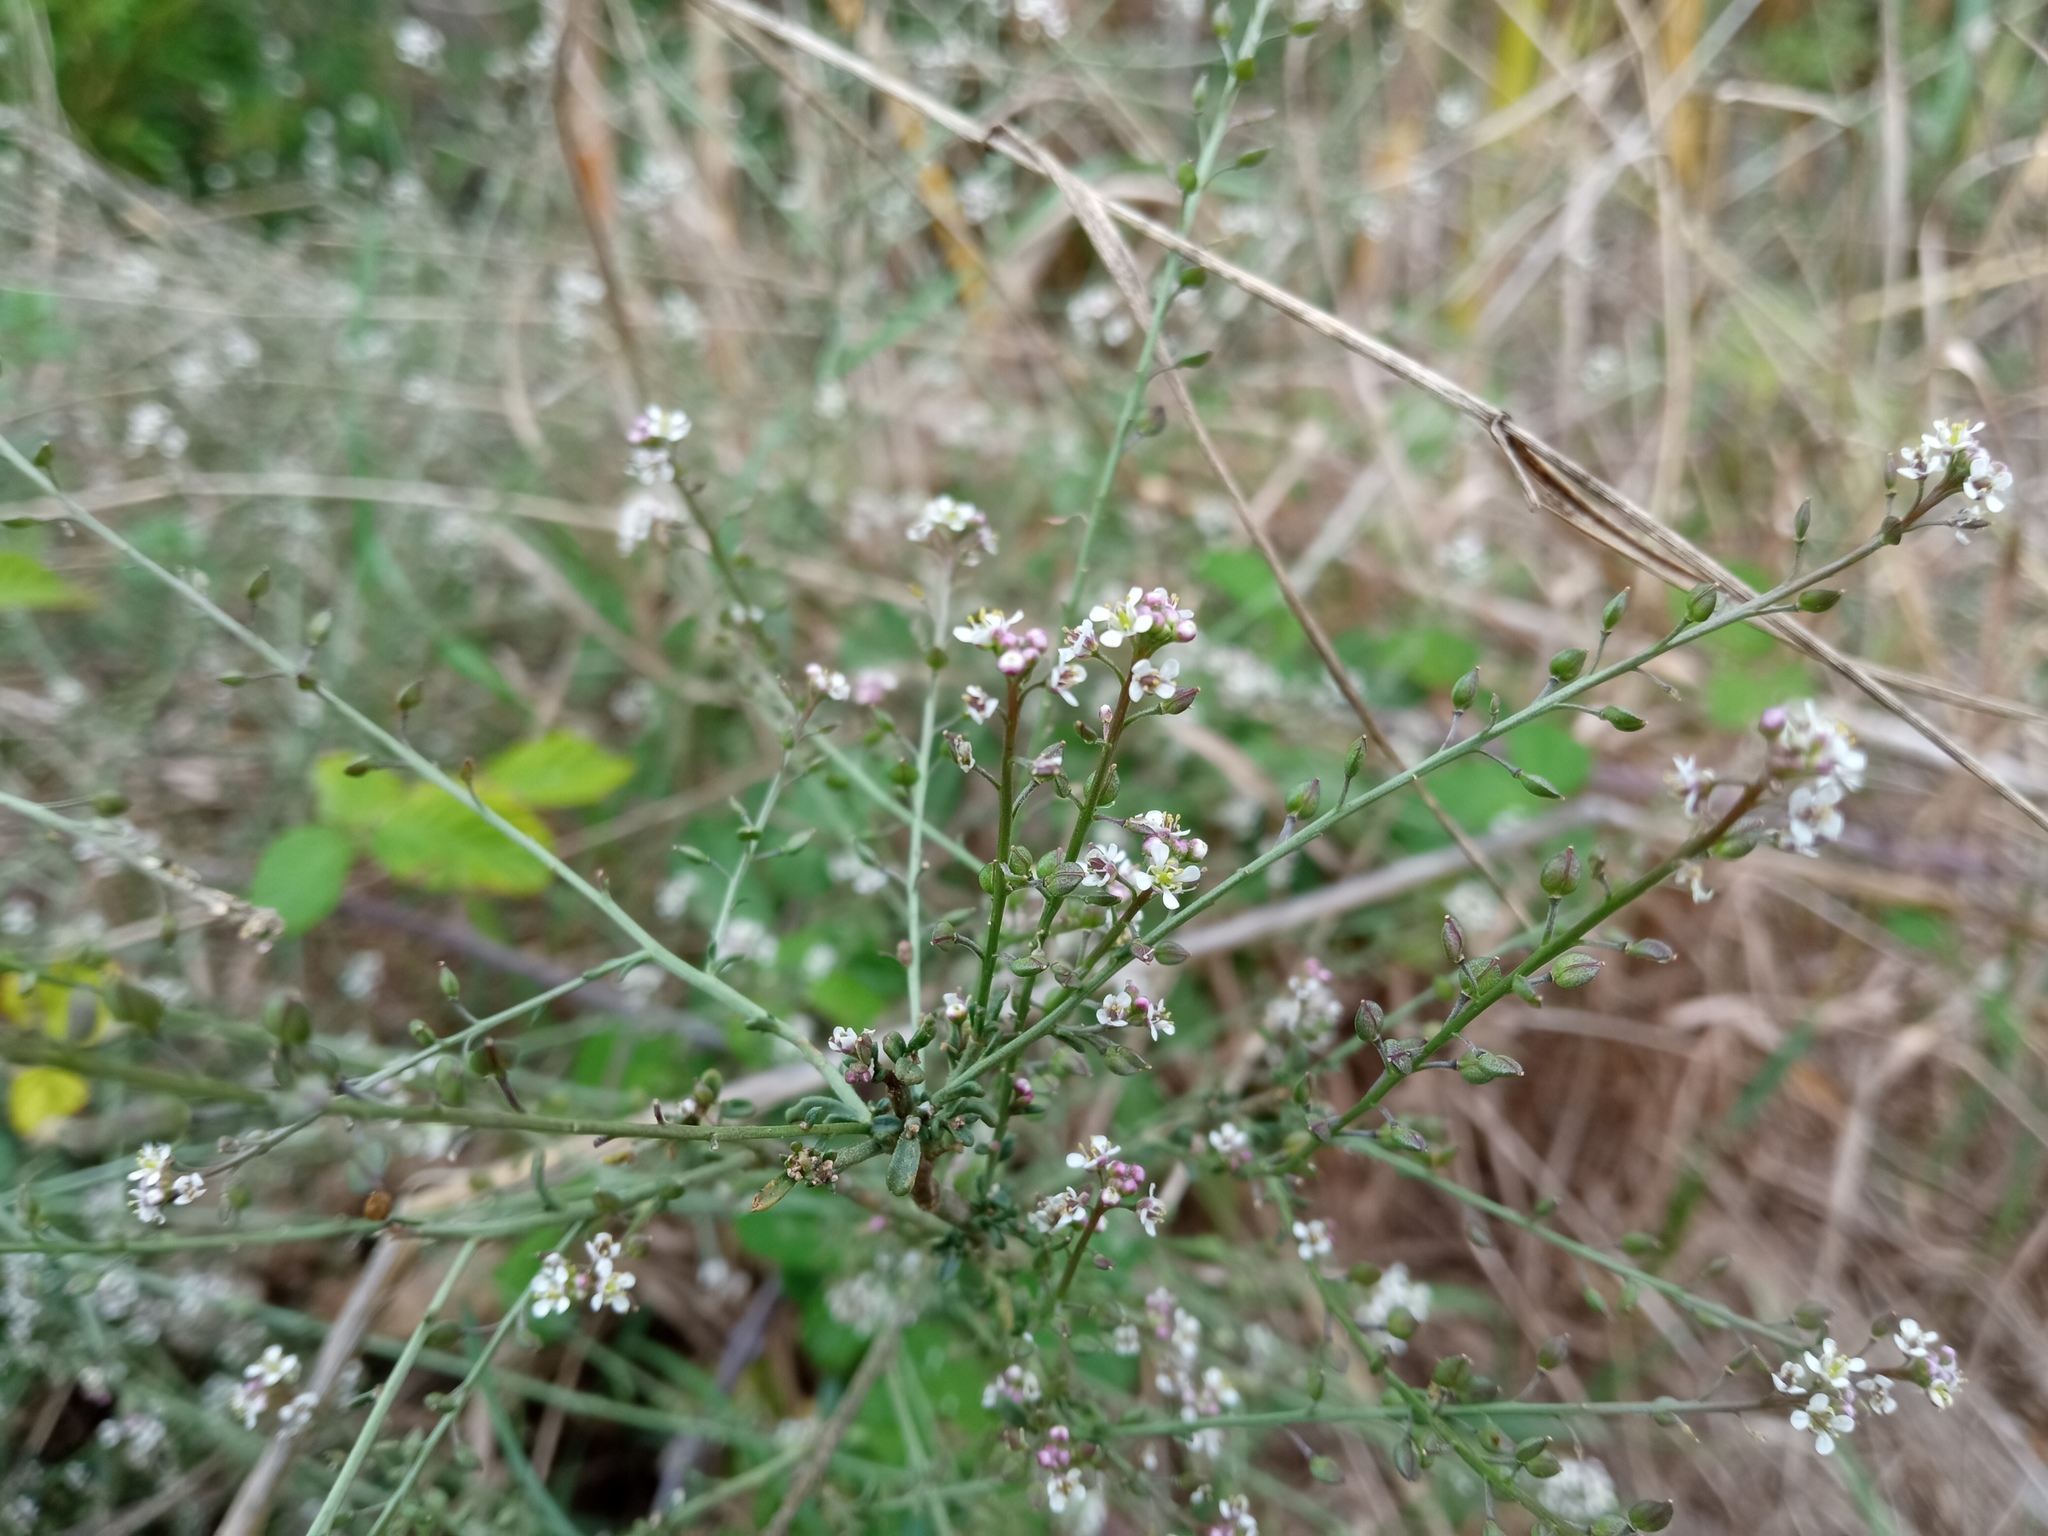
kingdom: Plantae
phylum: Tracheophyta
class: Magnoliopsida
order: Brassicales
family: Brassicaceae
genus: Lepidium
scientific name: Lepidium graminifolium
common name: Tall pepperwort
